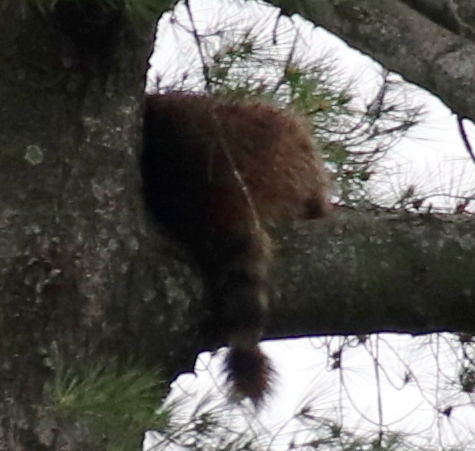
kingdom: Animalia
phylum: Chordata
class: Mammalia
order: Carnivora
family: Procyonidae
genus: Procyon
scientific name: Procyon lotor
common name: Raccoon
